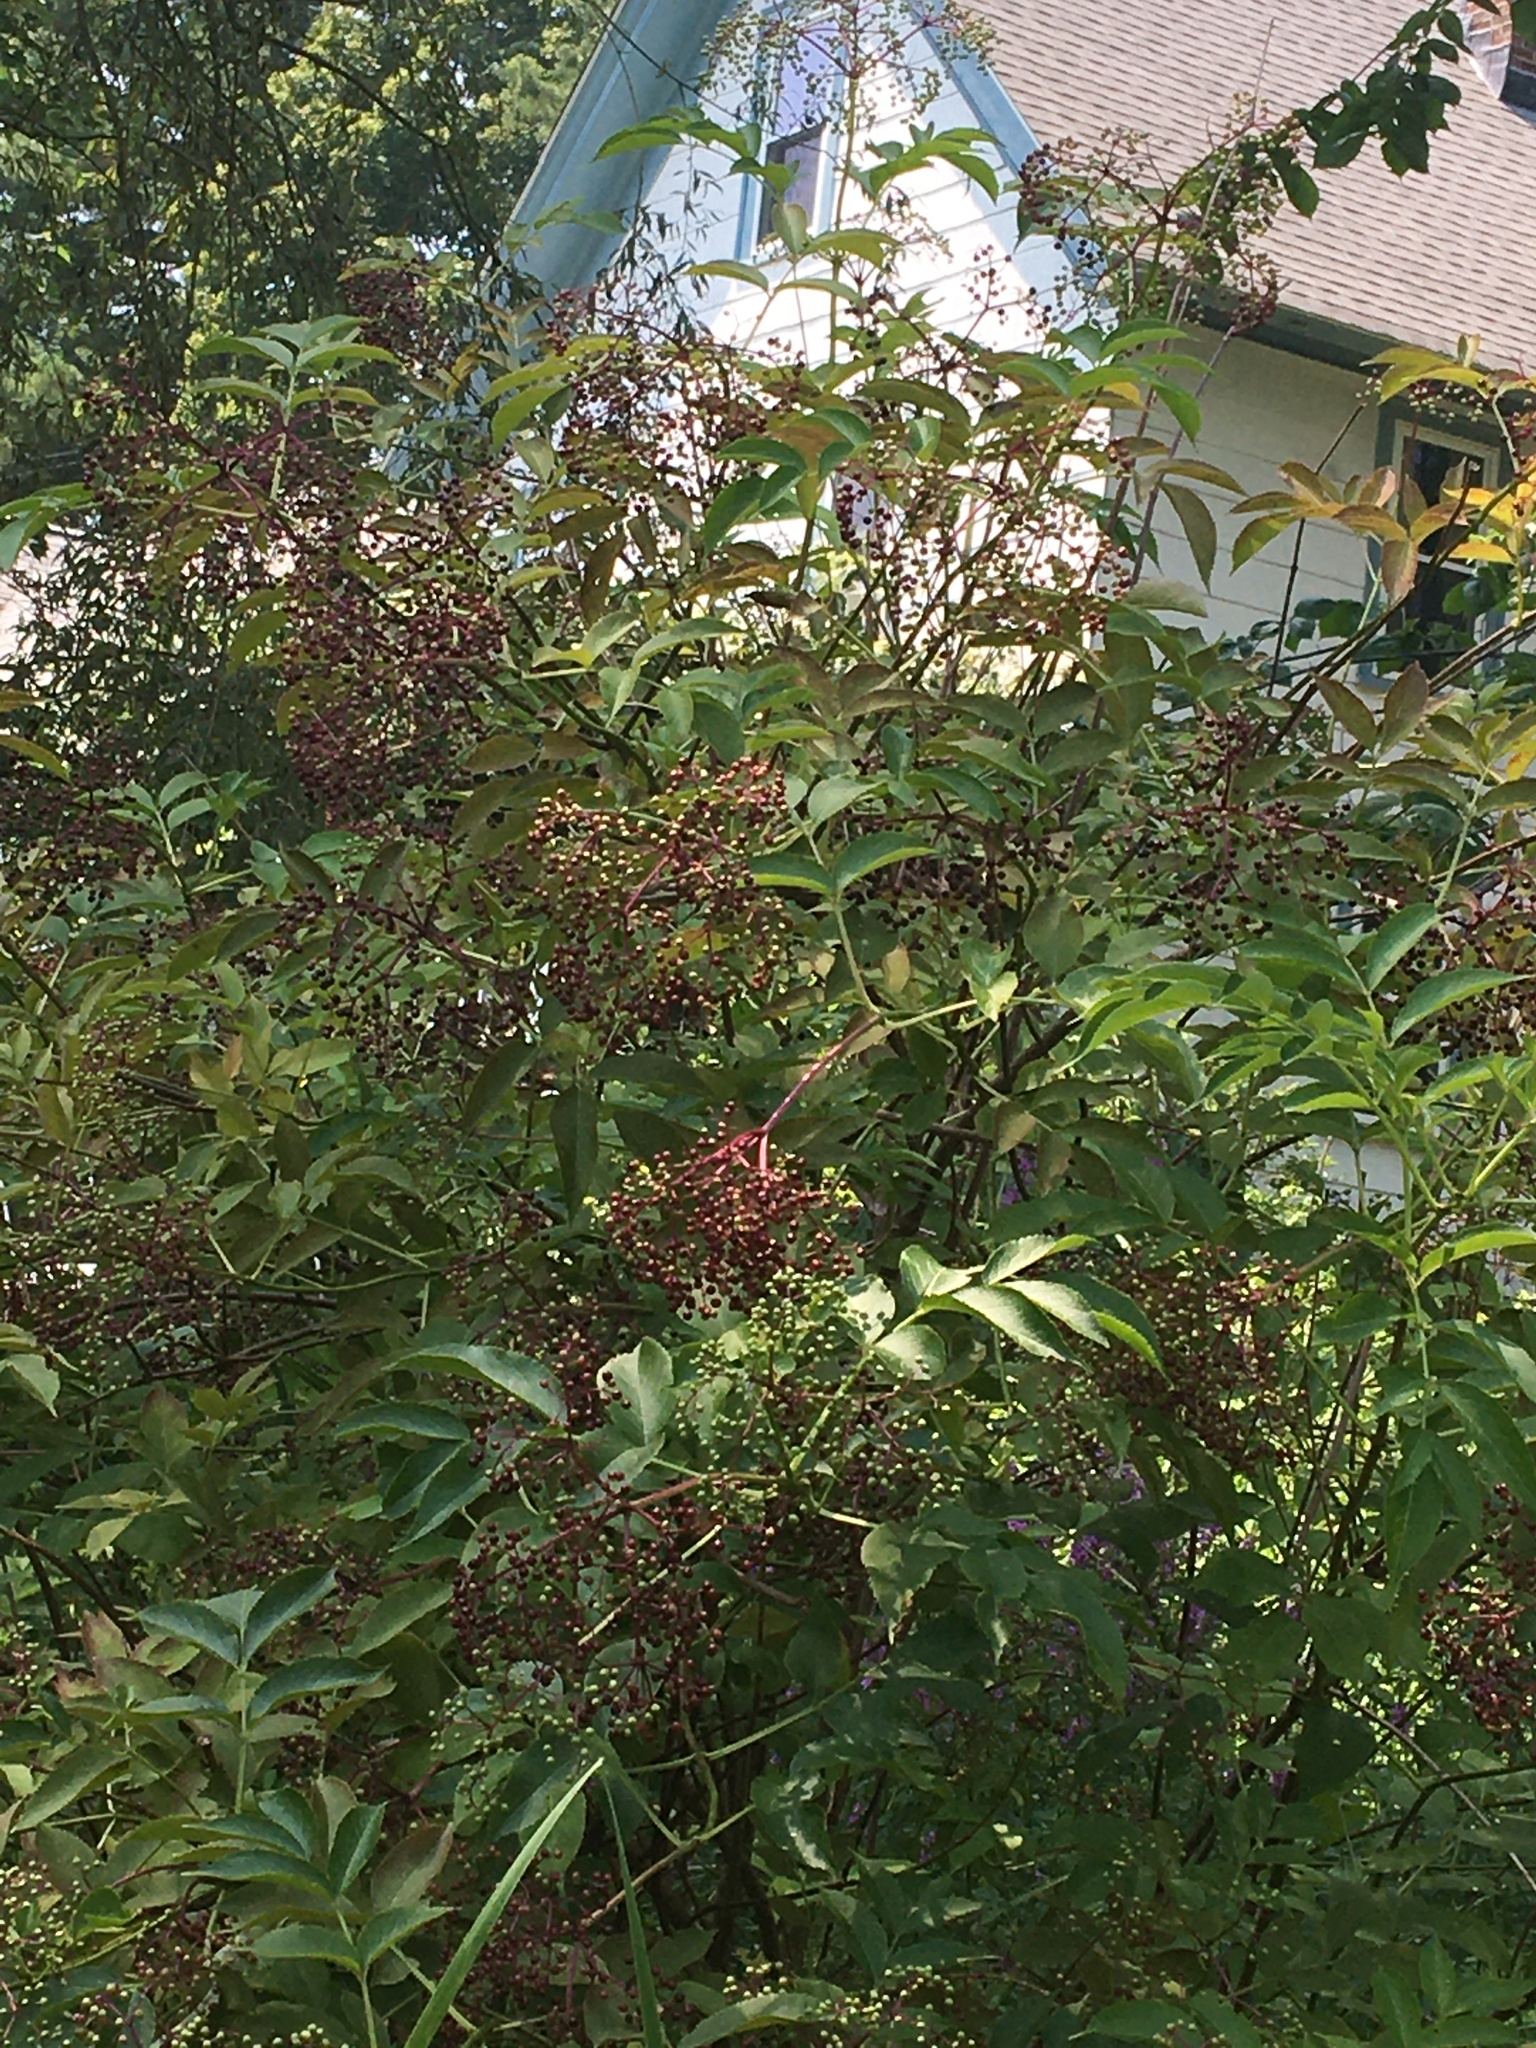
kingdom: Plantae
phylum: Tracheophyta
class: Magnoliopsida
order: Dipsacales
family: Viburnaceae
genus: Sambucus
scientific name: Sambucus canadensis
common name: American elder
